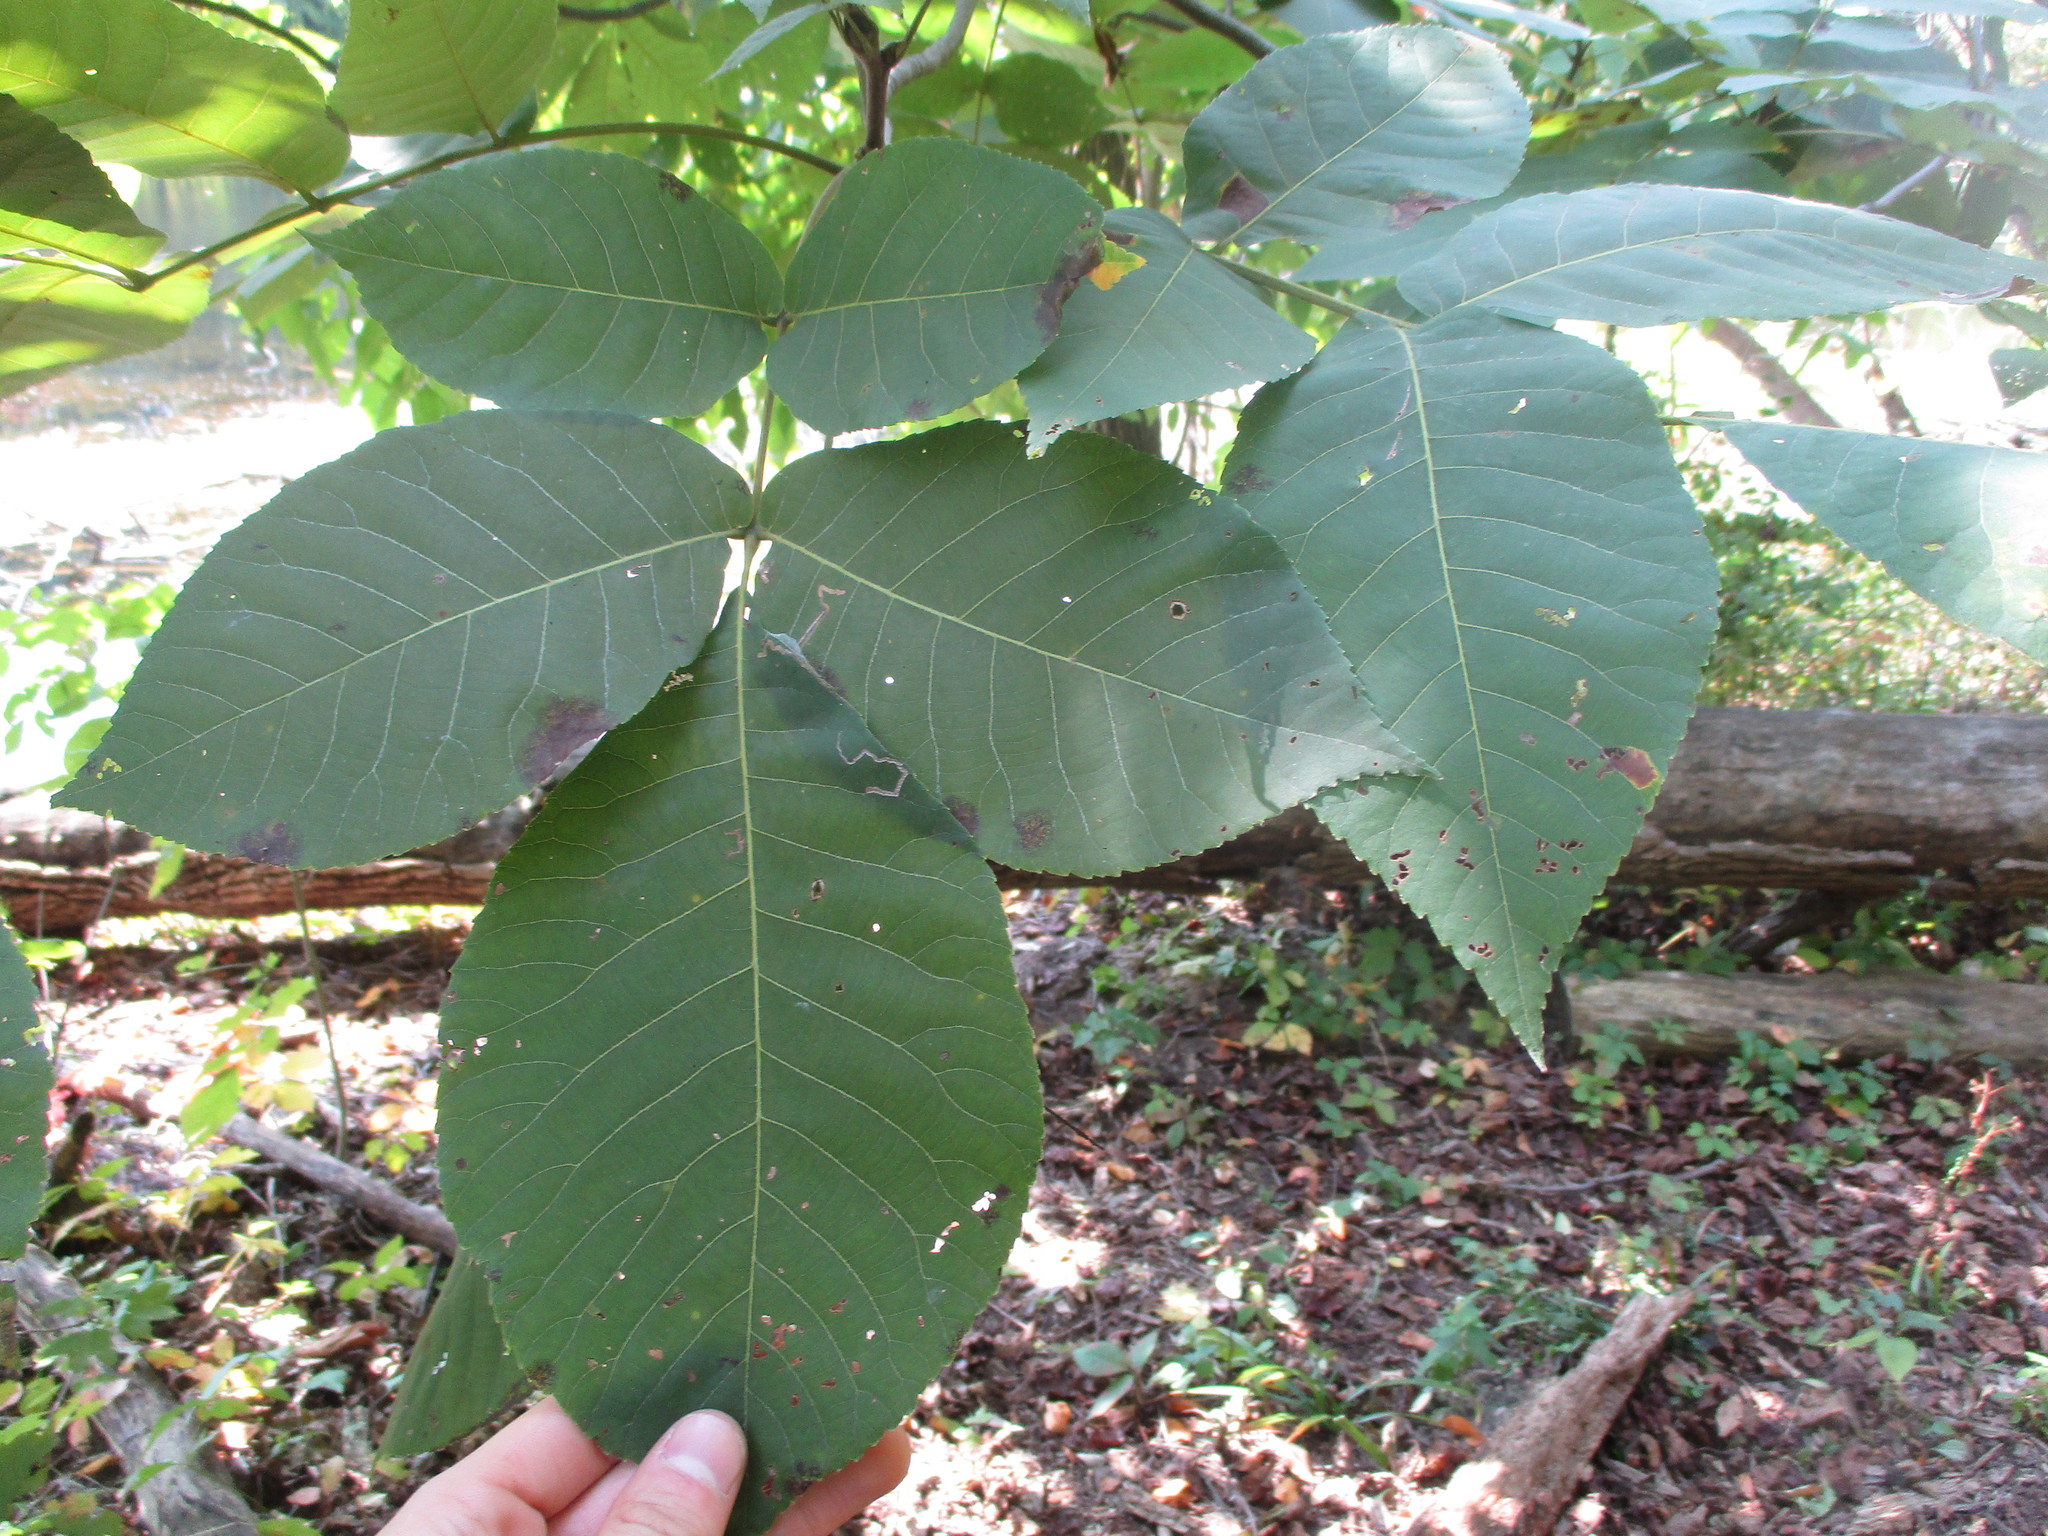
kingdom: Plantae
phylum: Tracheophyta
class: Magnoliopsida
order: Fagales
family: Juglandaceae
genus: Carya
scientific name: Carya ovata
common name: Shagbark hickory
